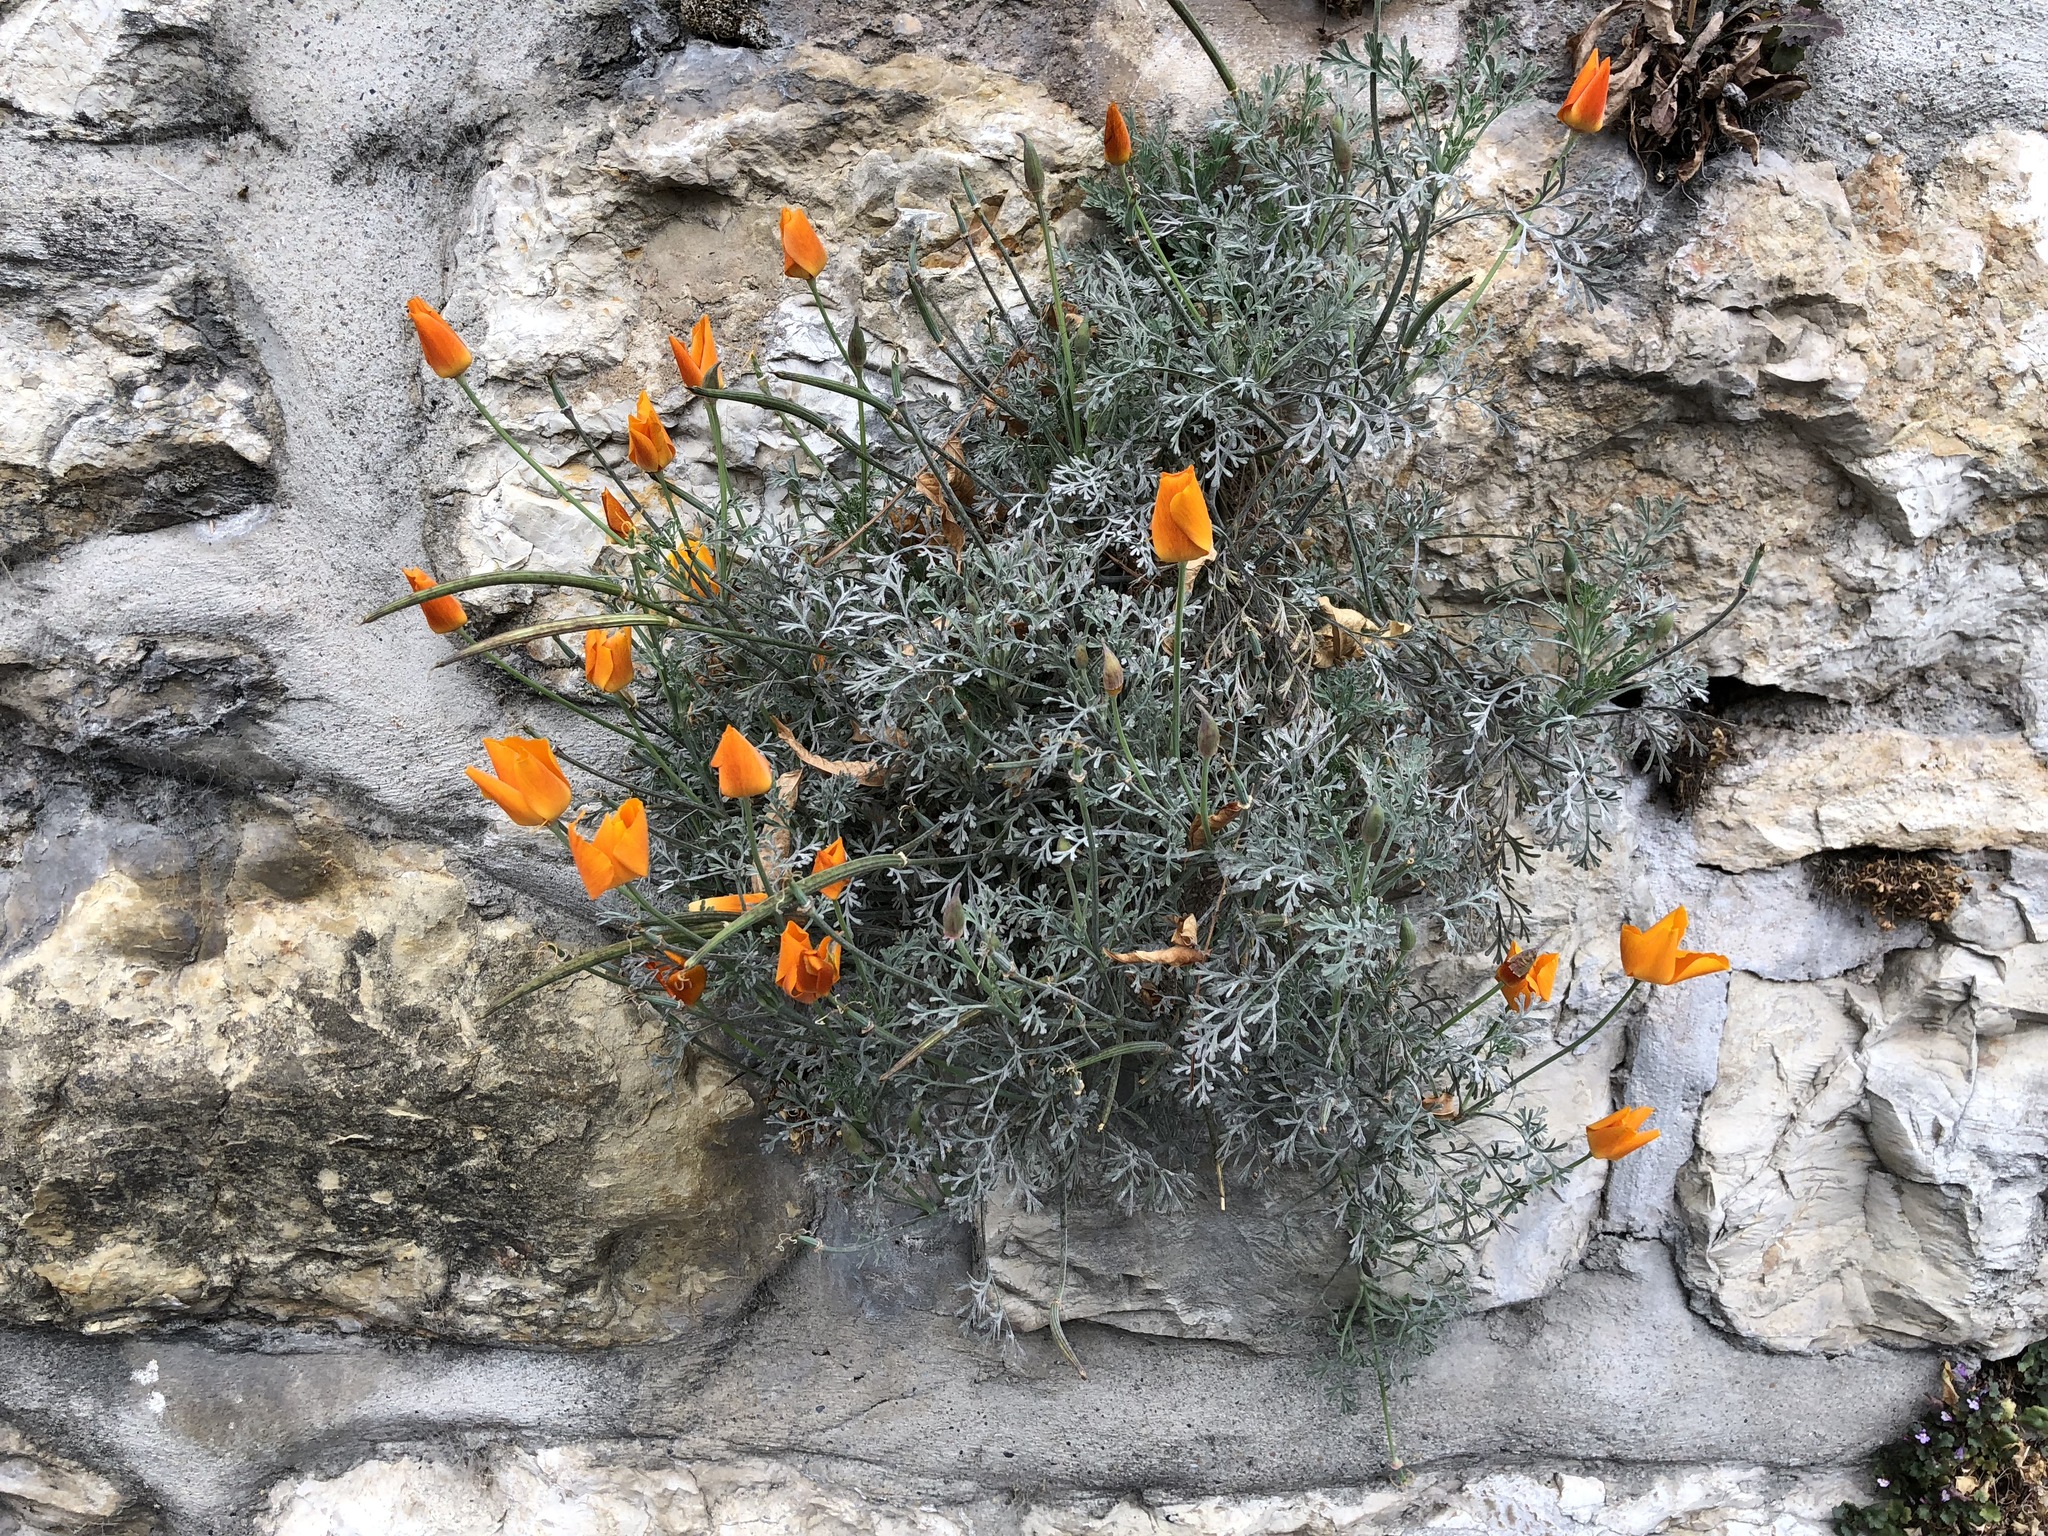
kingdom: Plantae
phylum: Tracheophyta
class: Magnoliopsida
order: Ranunculales
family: Papaveraceae
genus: Eschscholzia
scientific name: Eschscholzia californica
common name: California poppy
